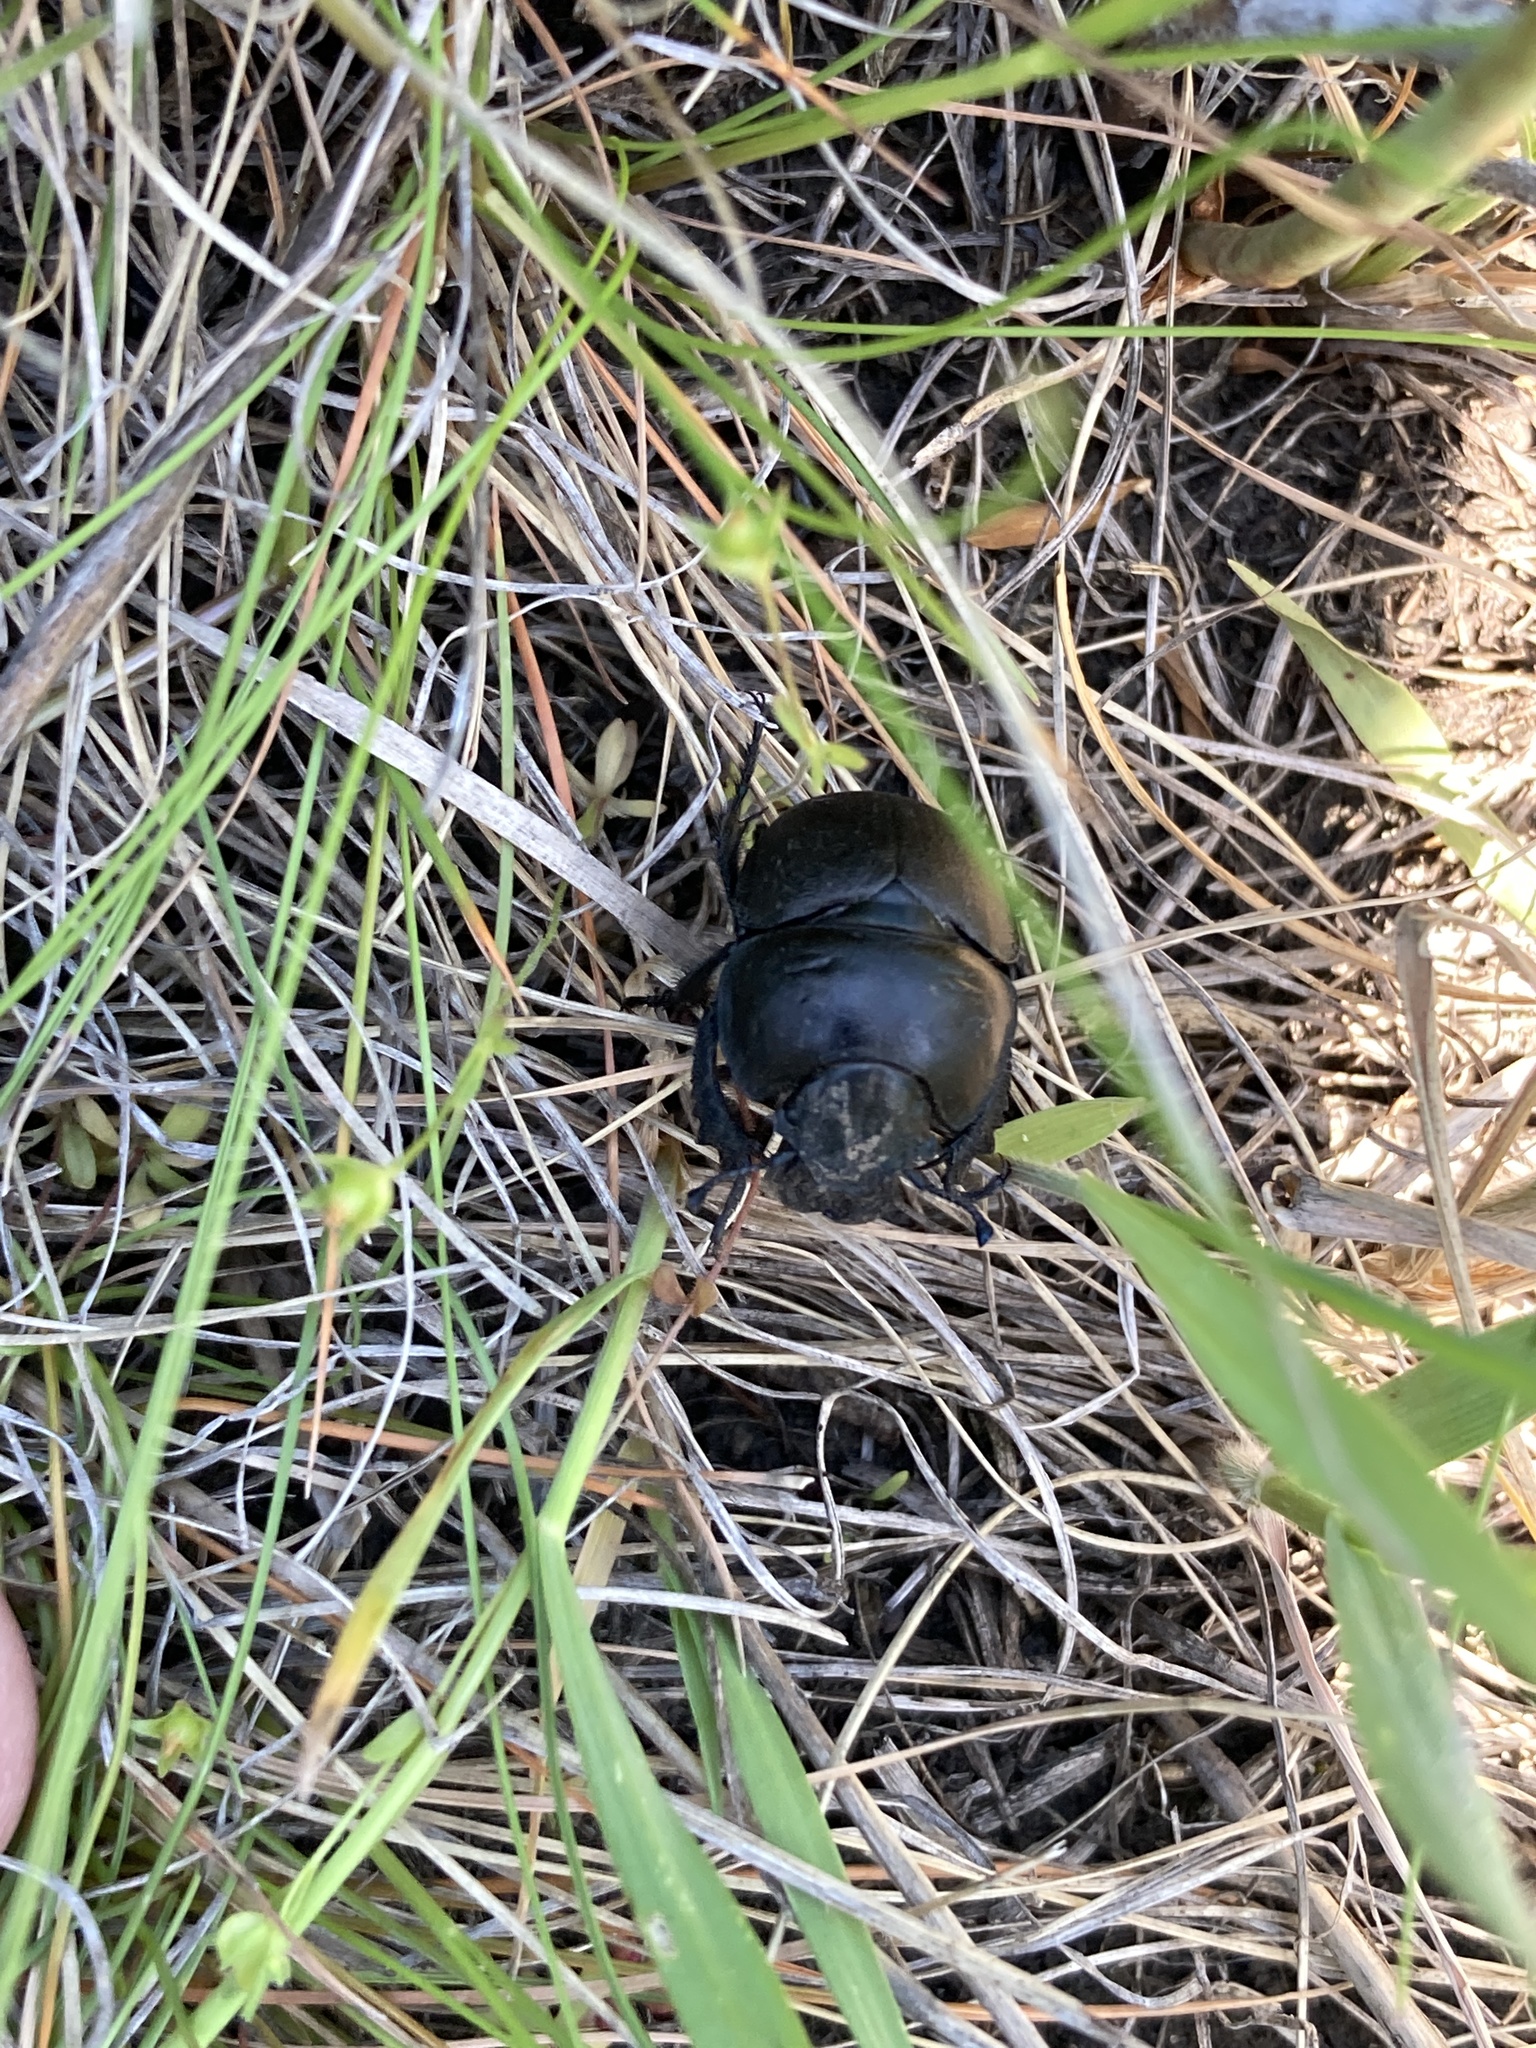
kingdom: Animalia
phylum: Arthropoda
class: Insecta
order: Coleoptera
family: Geotrupidae
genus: Lethrus
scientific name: Lethrus apterus
